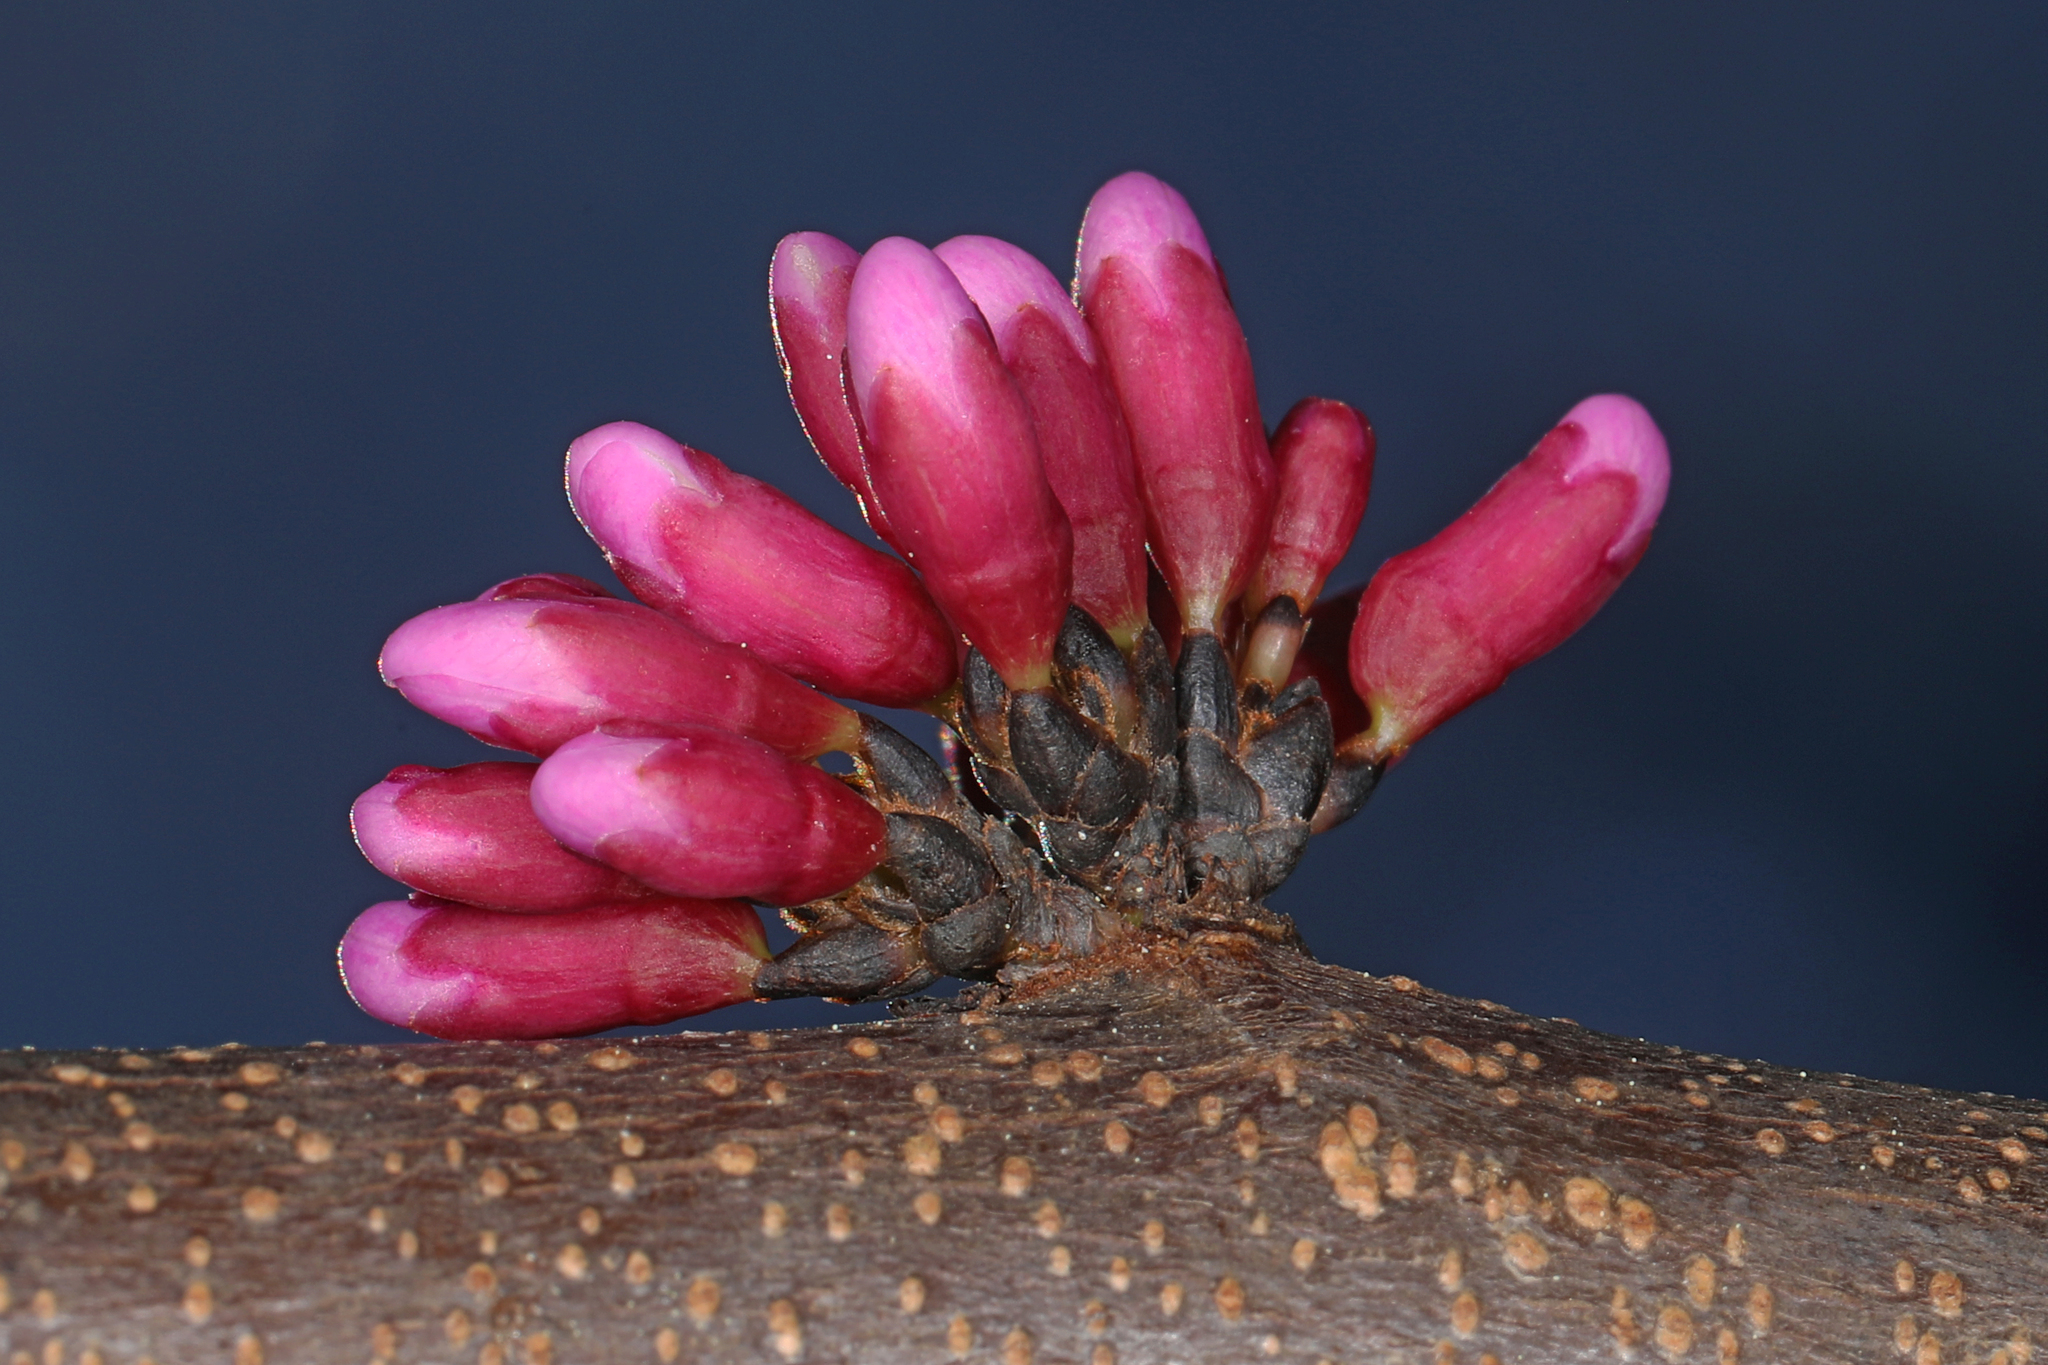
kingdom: Plantae
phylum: Tracheophyta
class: Magnoliopsida
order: Fabales
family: Fabaceae
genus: Cercis
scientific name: Cercis canadensis
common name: Eastern redbud
